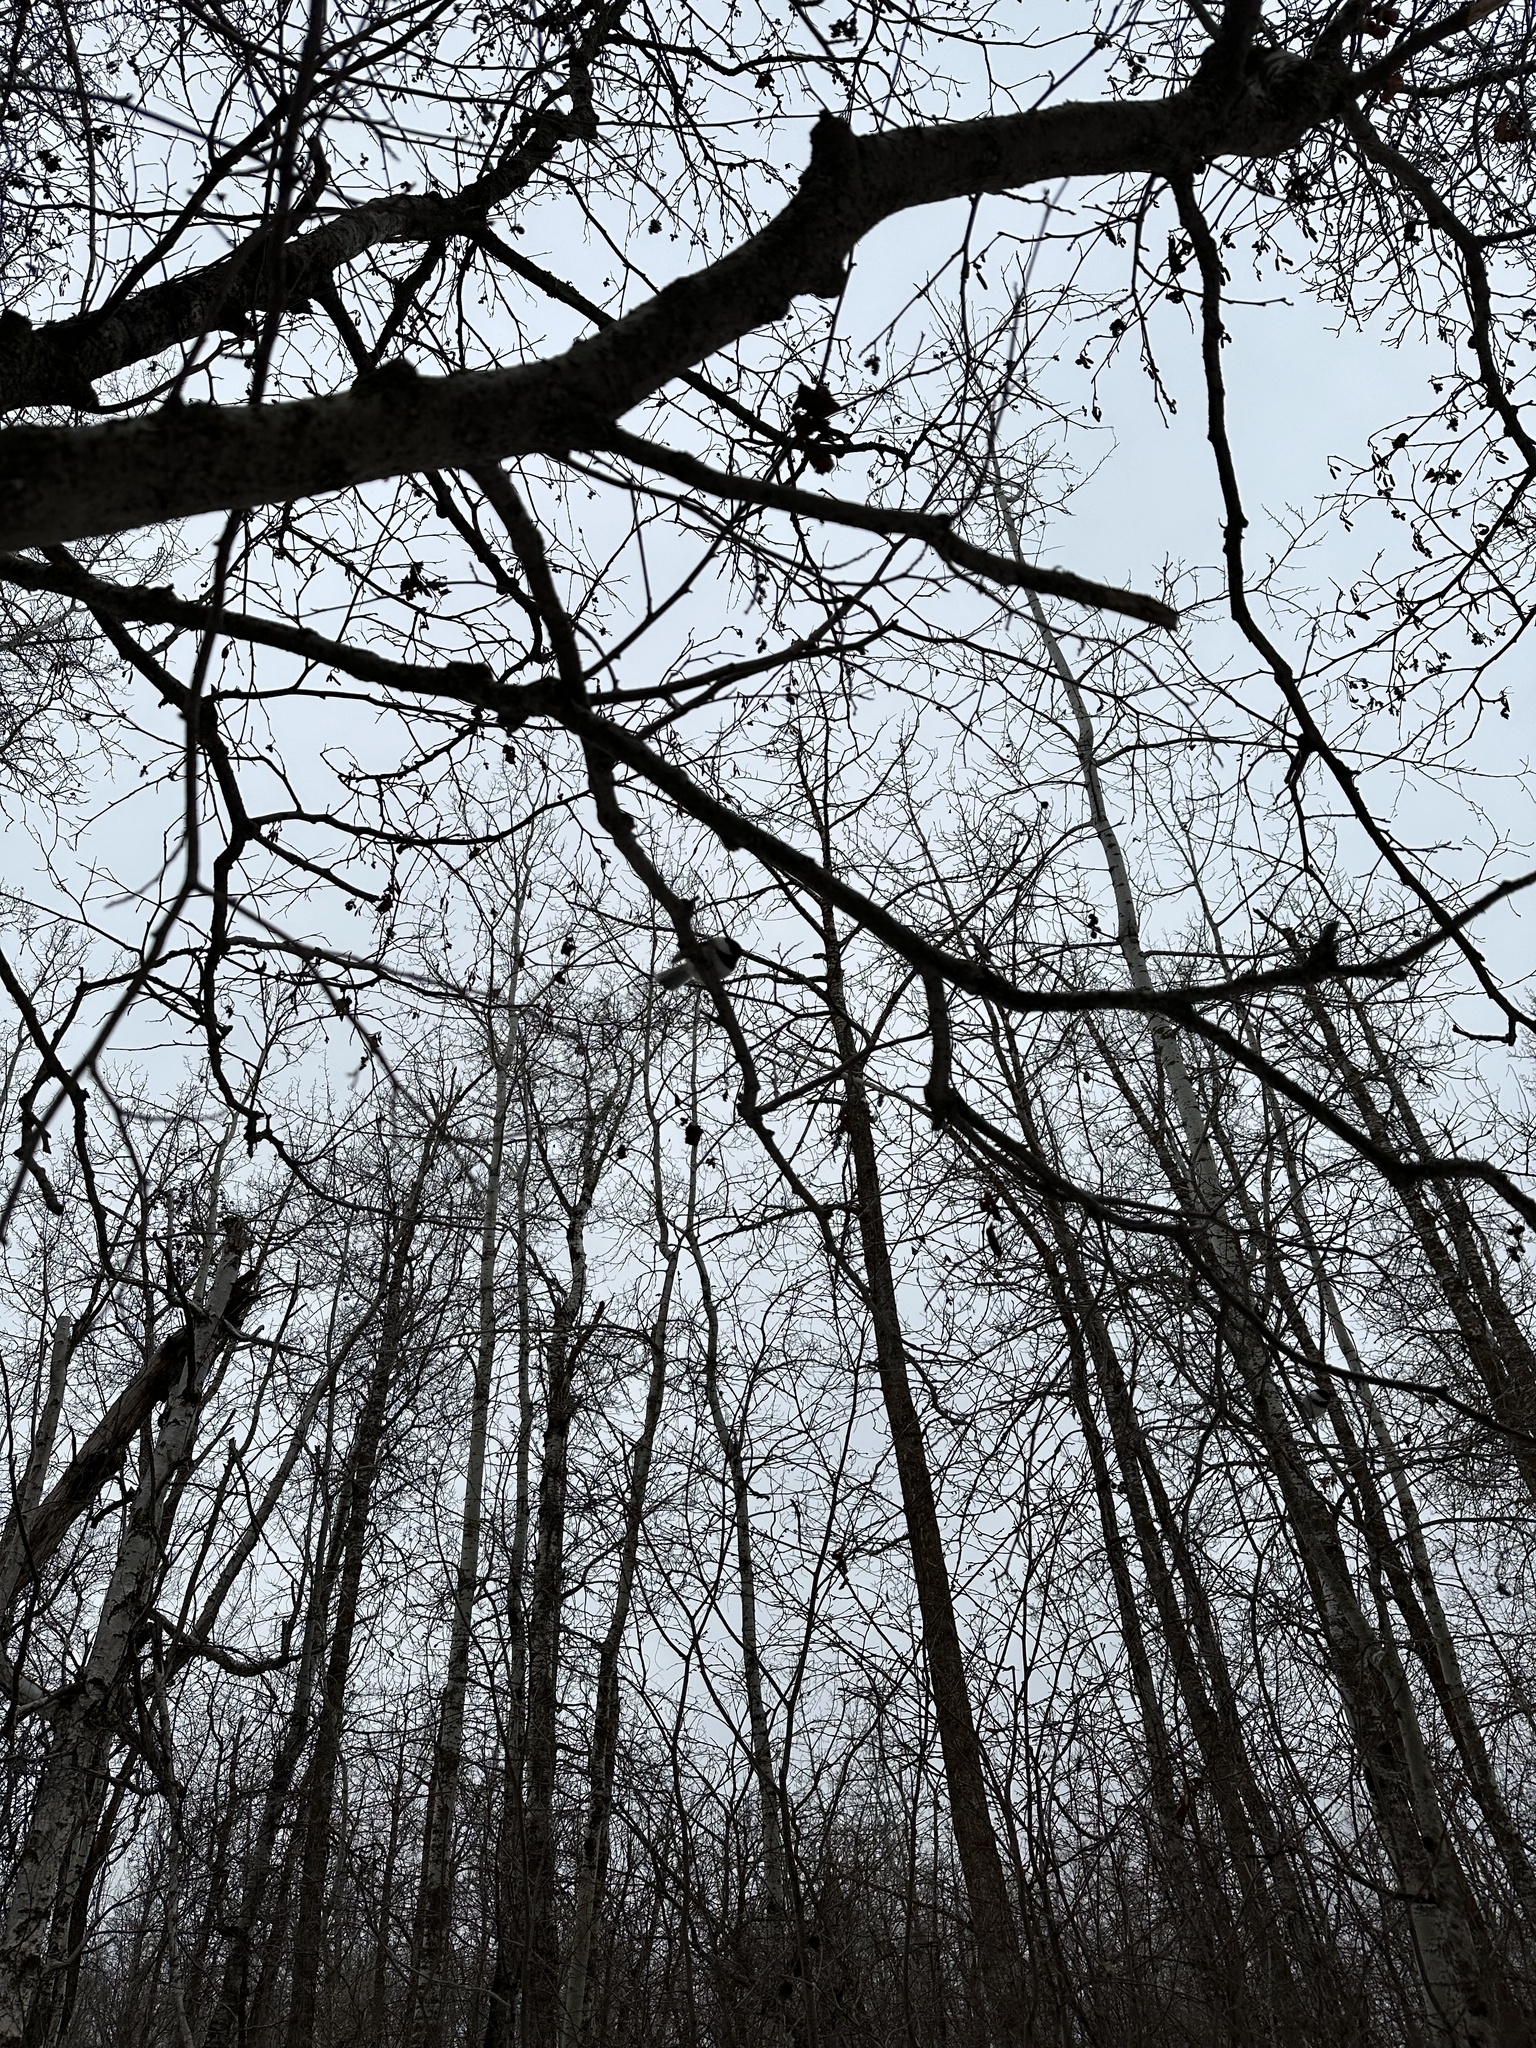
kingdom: Animalia
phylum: Chordata
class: Aves
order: Passeriformes
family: Paridae
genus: Poecile
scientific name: Poecile atricapillus
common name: Black-capped chickadee
